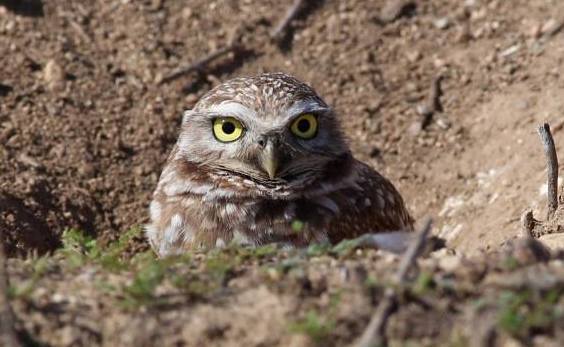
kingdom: Animalia
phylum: Chordata
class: Aves
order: Strigiformes
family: Strigidae
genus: Athene
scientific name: Athene cunicularia
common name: Burrowing owl
